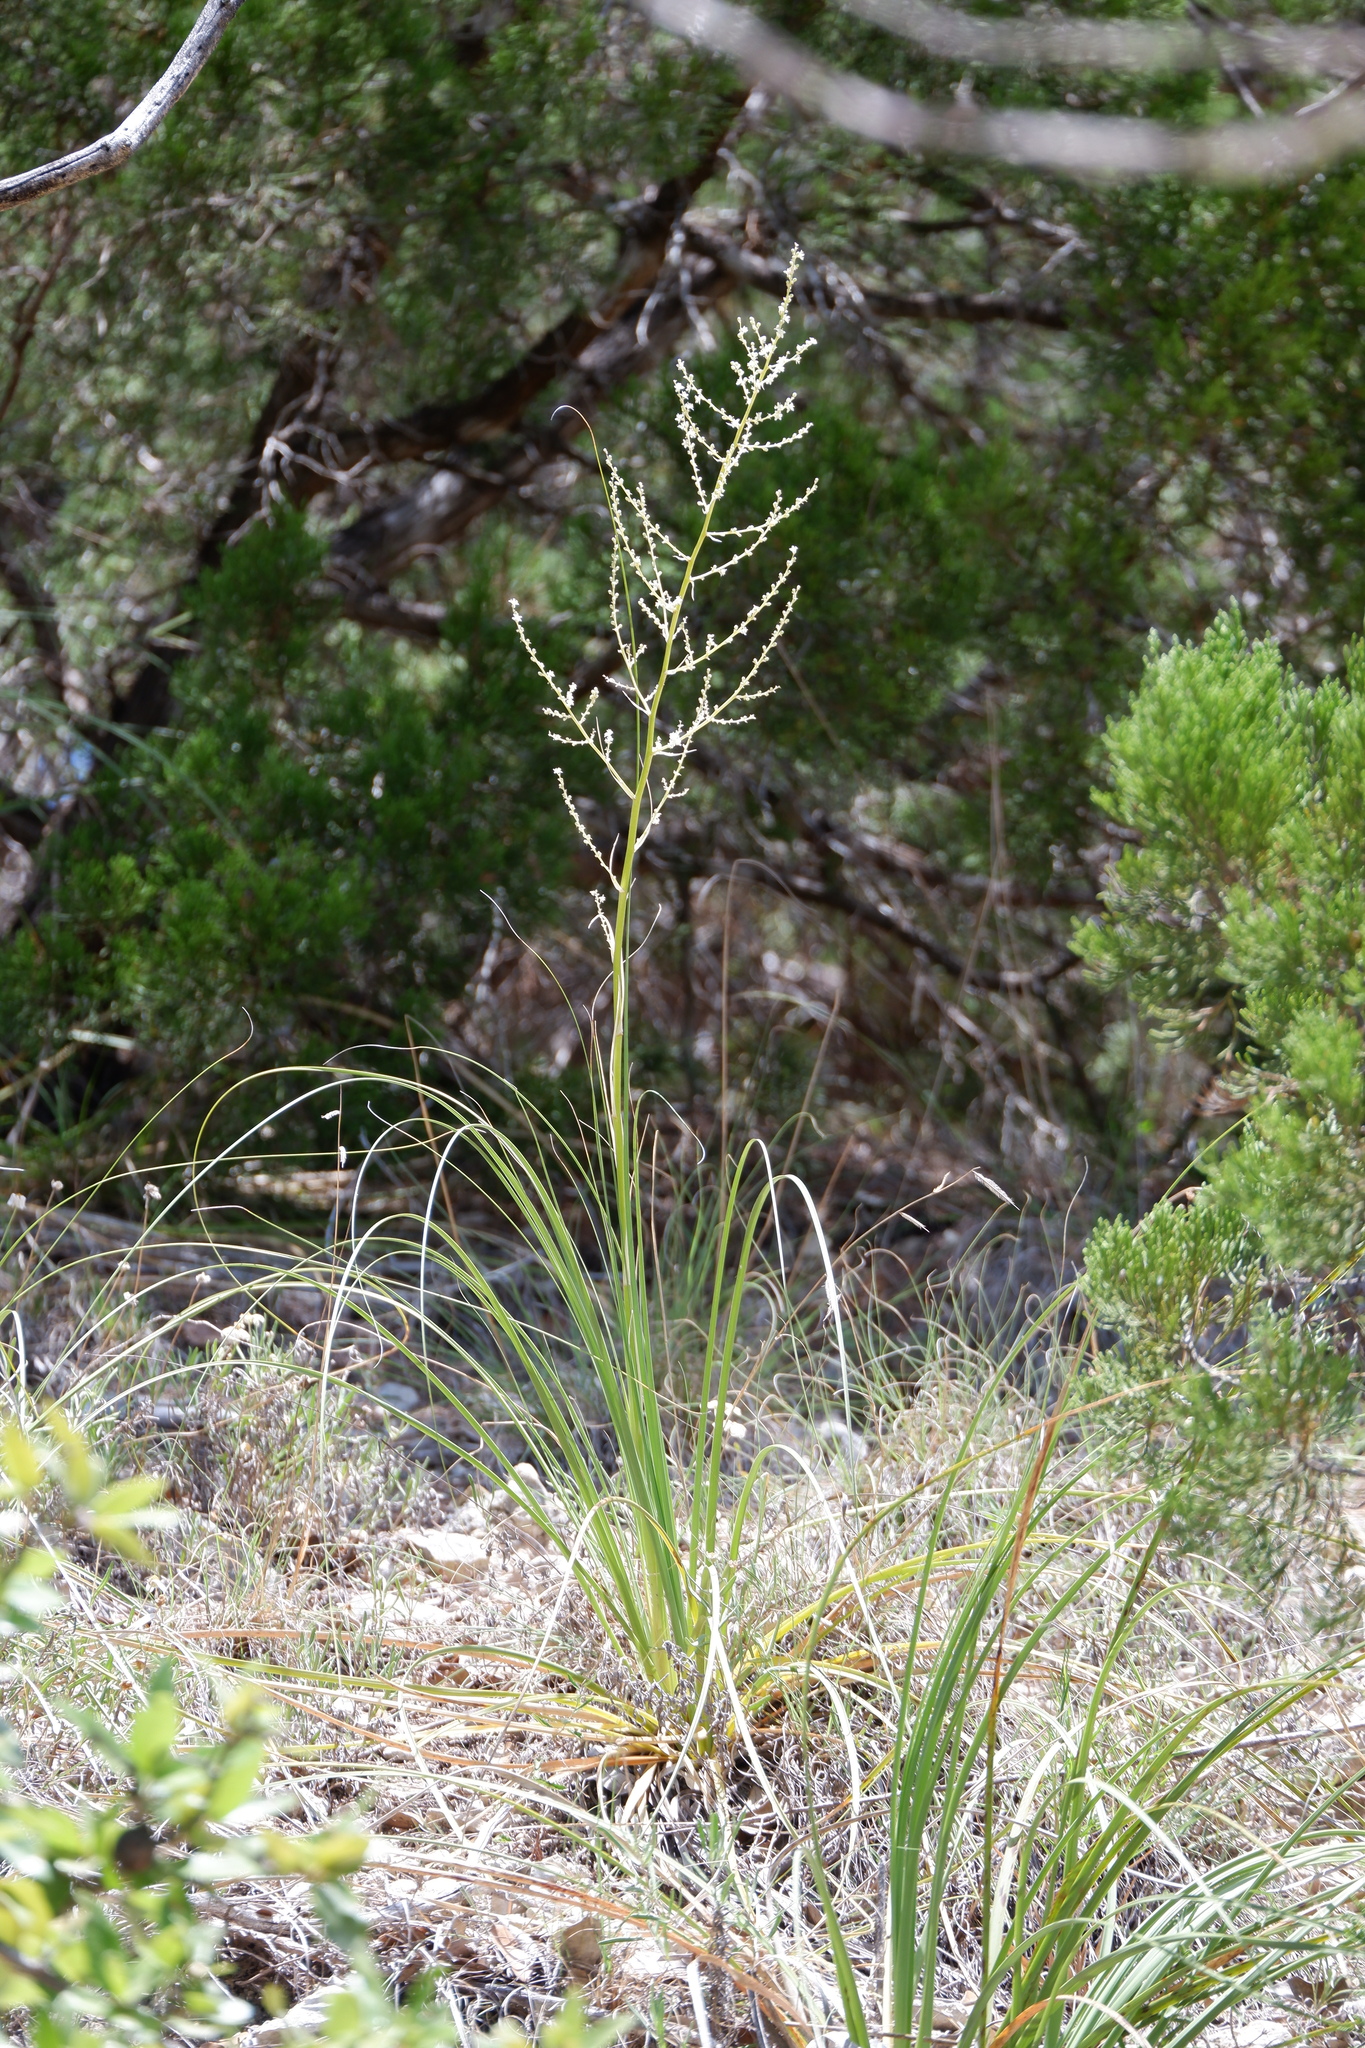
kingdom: Plantae
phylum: Tracheophyta
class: Liliopsida
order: Asparagales
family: Asparagaceae
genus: Nolina
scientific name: Nolina lindheimeriana
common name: Lindheimer's bear-grass
